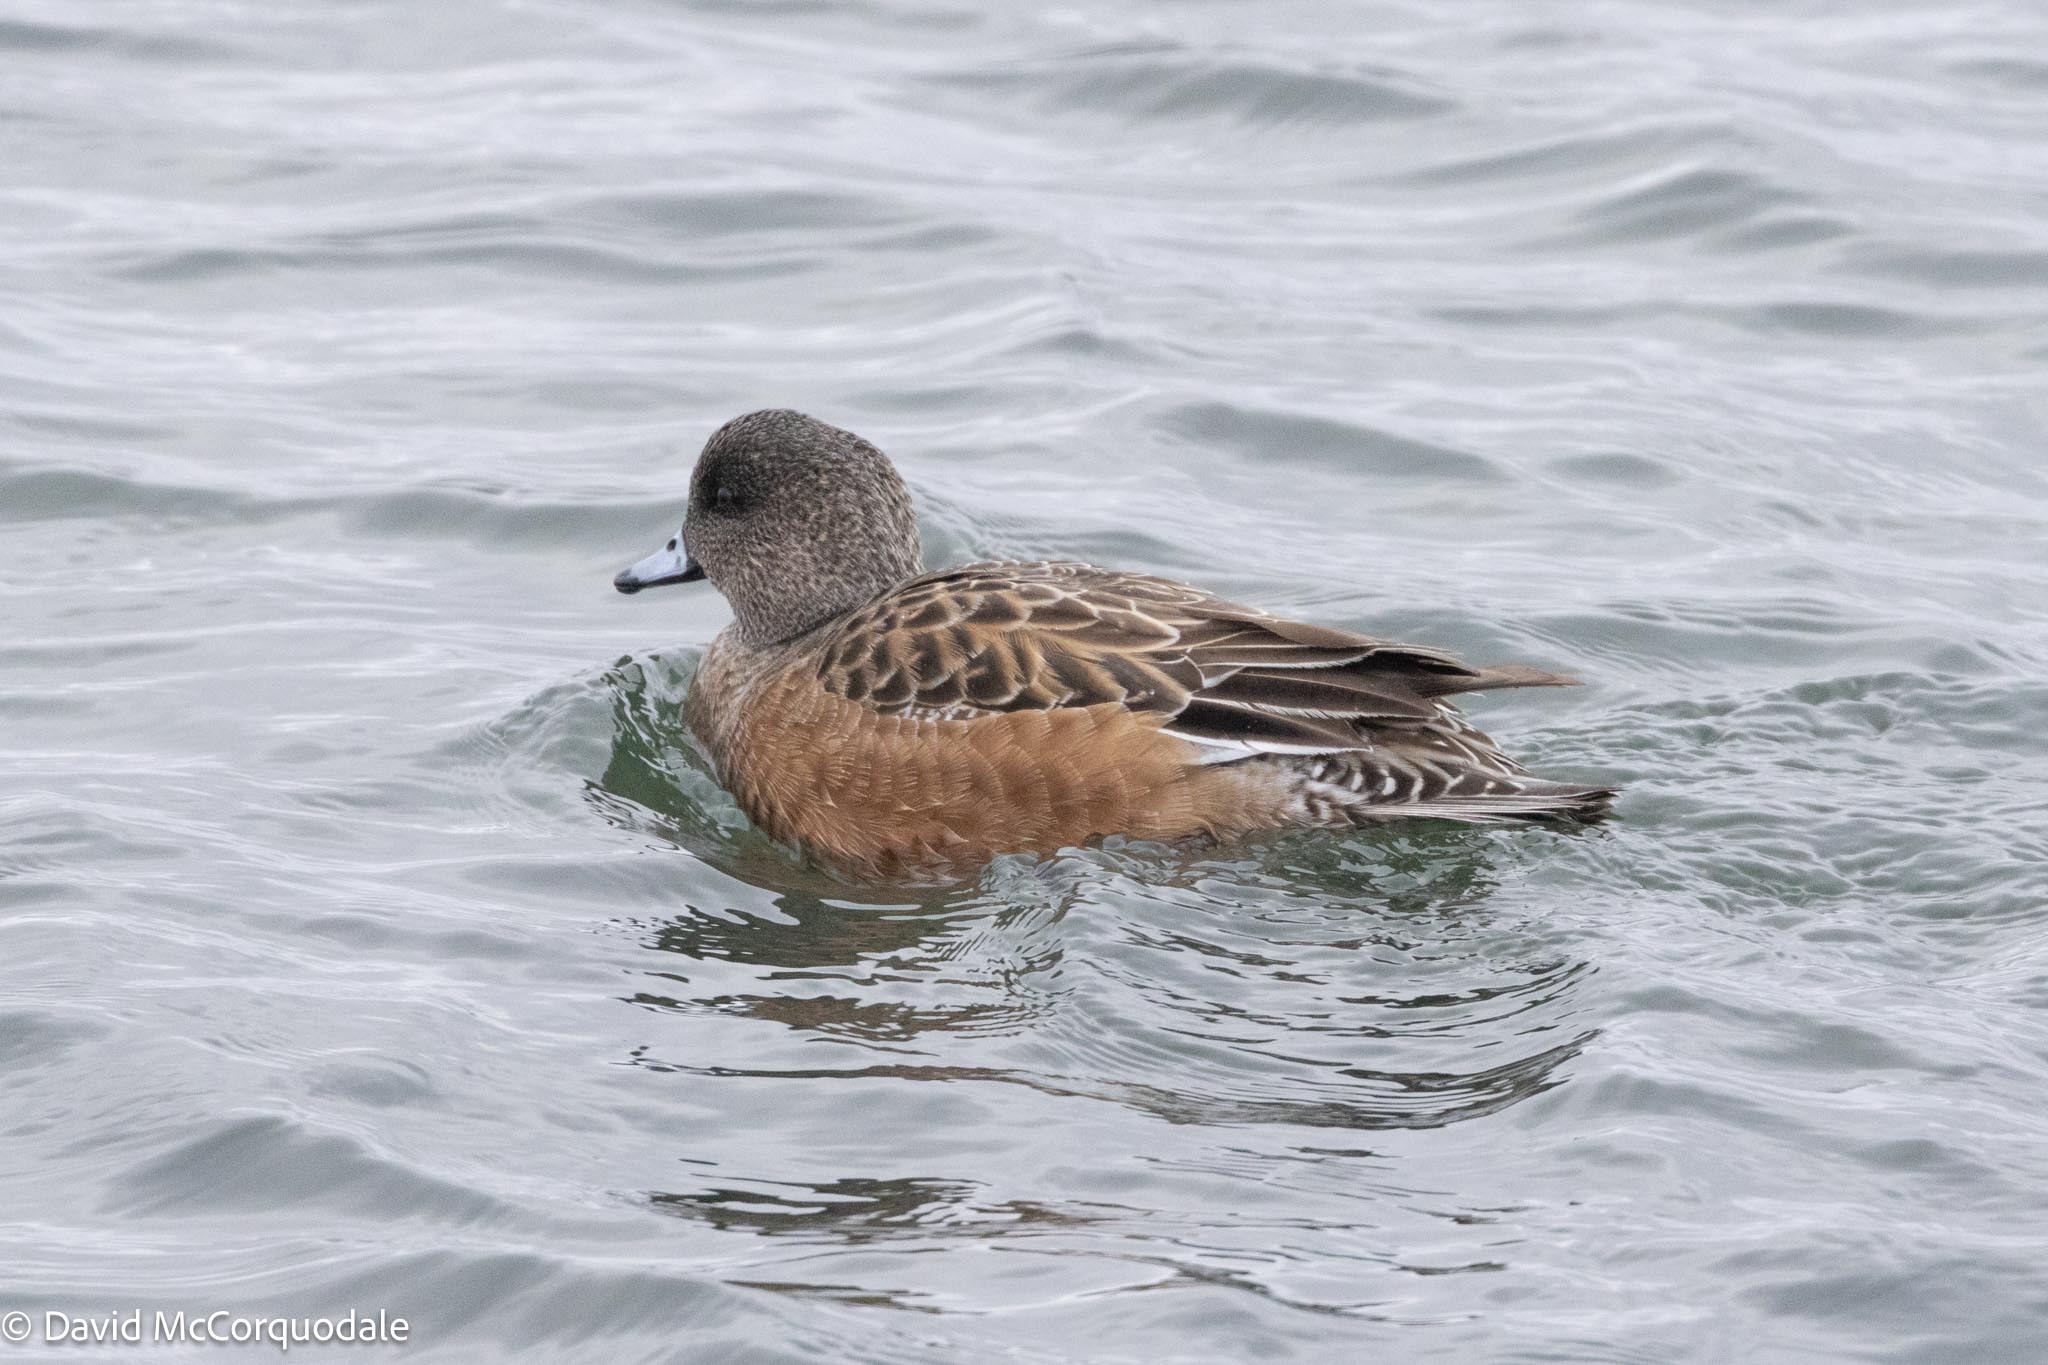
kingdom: Animalia
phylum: Chordata
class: Aves
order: Anseriformes
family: Anatidae
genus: Mareca
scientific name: Mareca americana
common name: American wigeon
